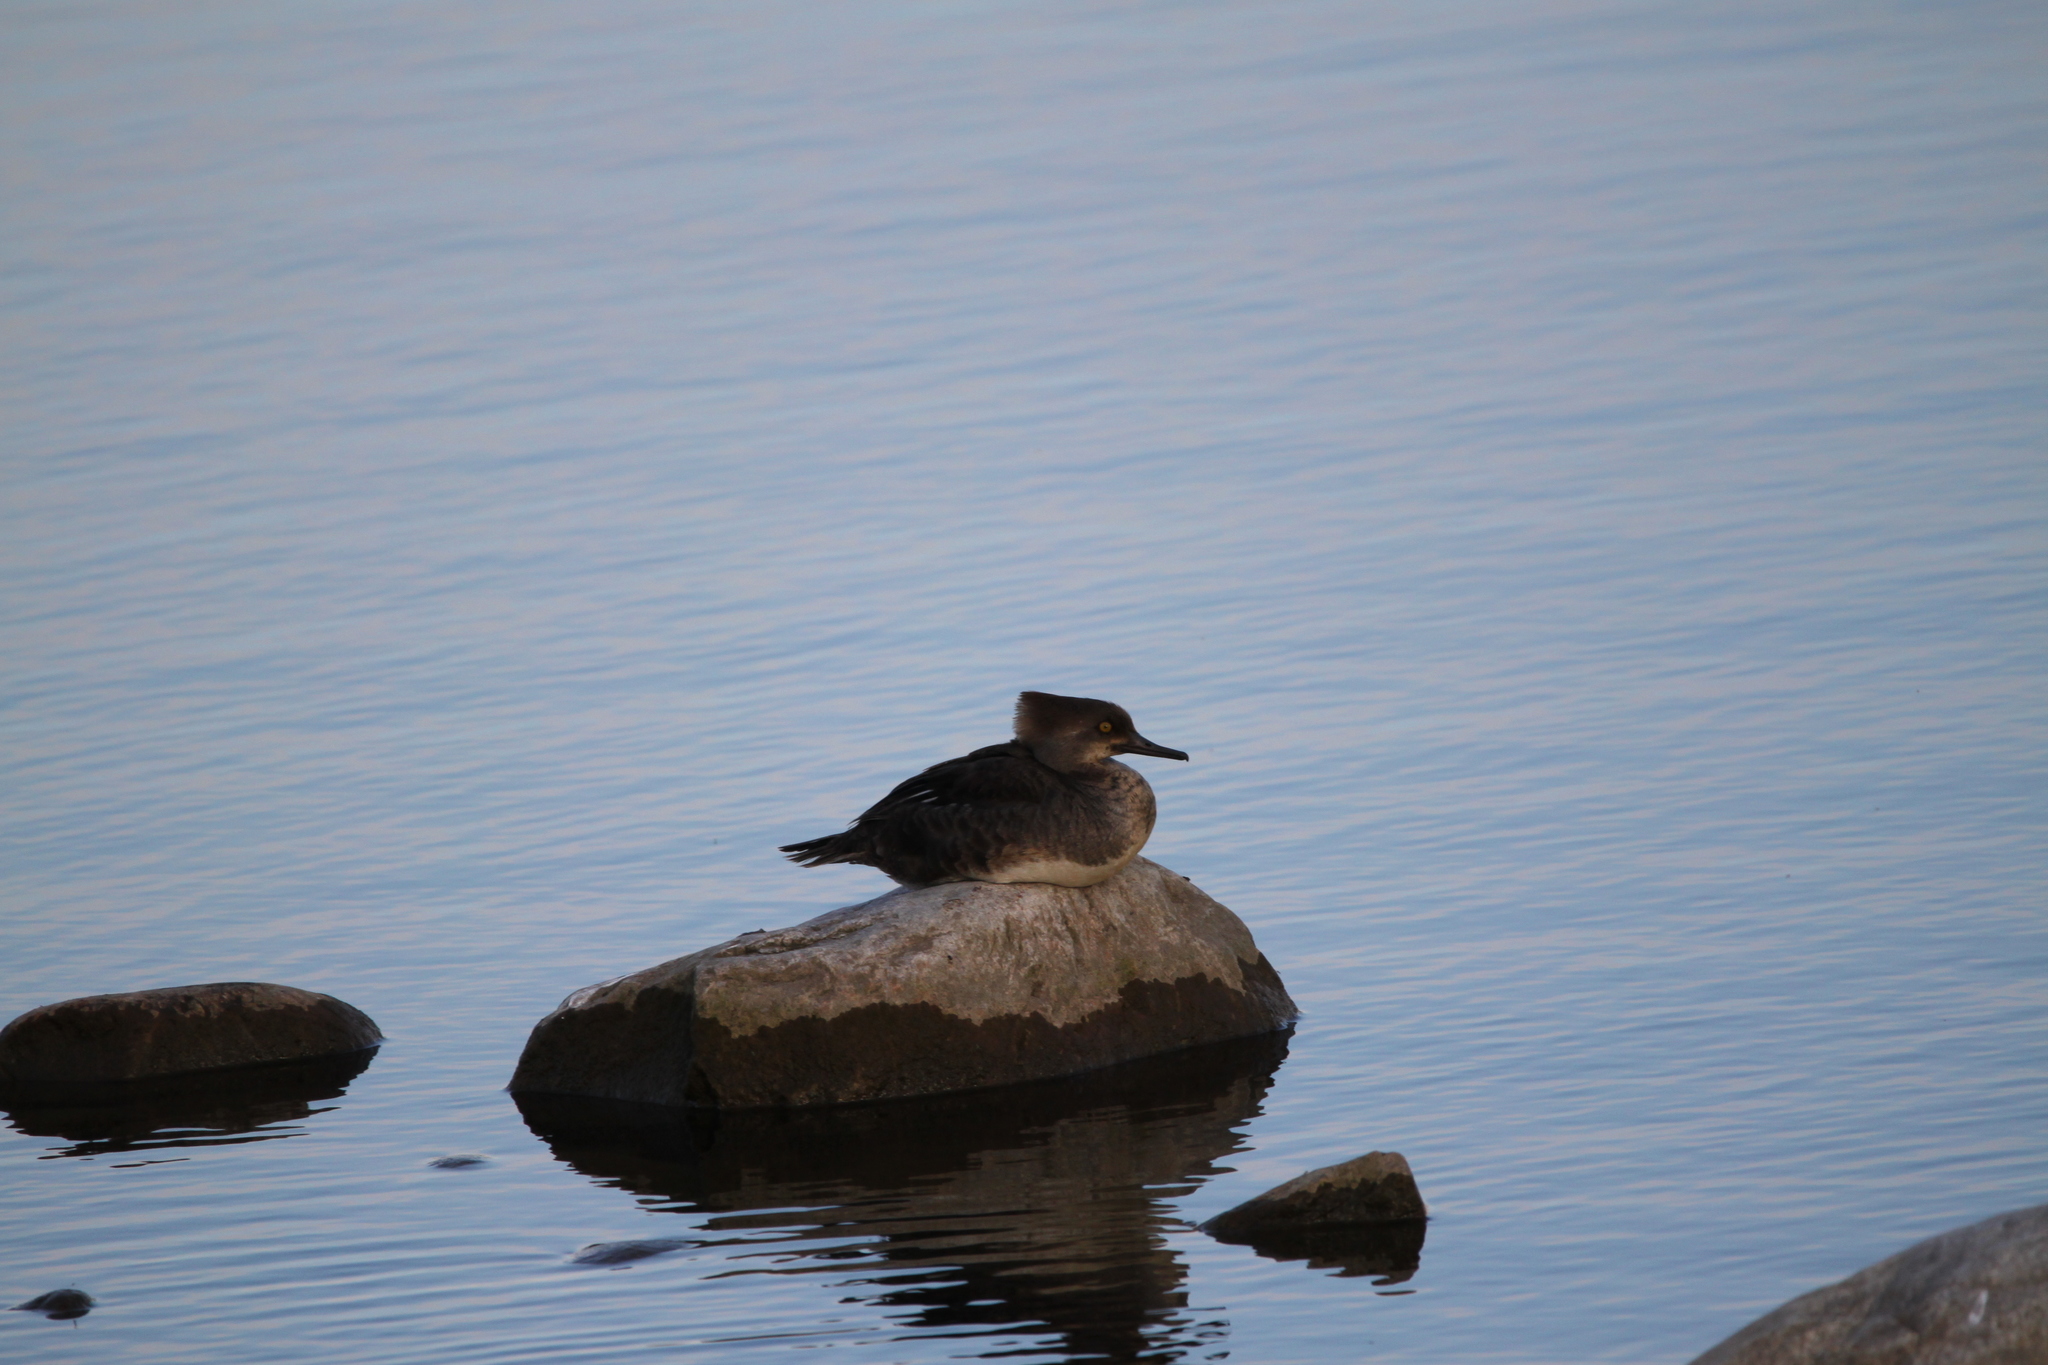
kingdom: Animalia
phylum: Chordata
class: Aves
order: Anseriformes
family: Anatidae
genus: Lophodytes
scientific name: Lophodytes cucullatus
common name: Hooded merganser
